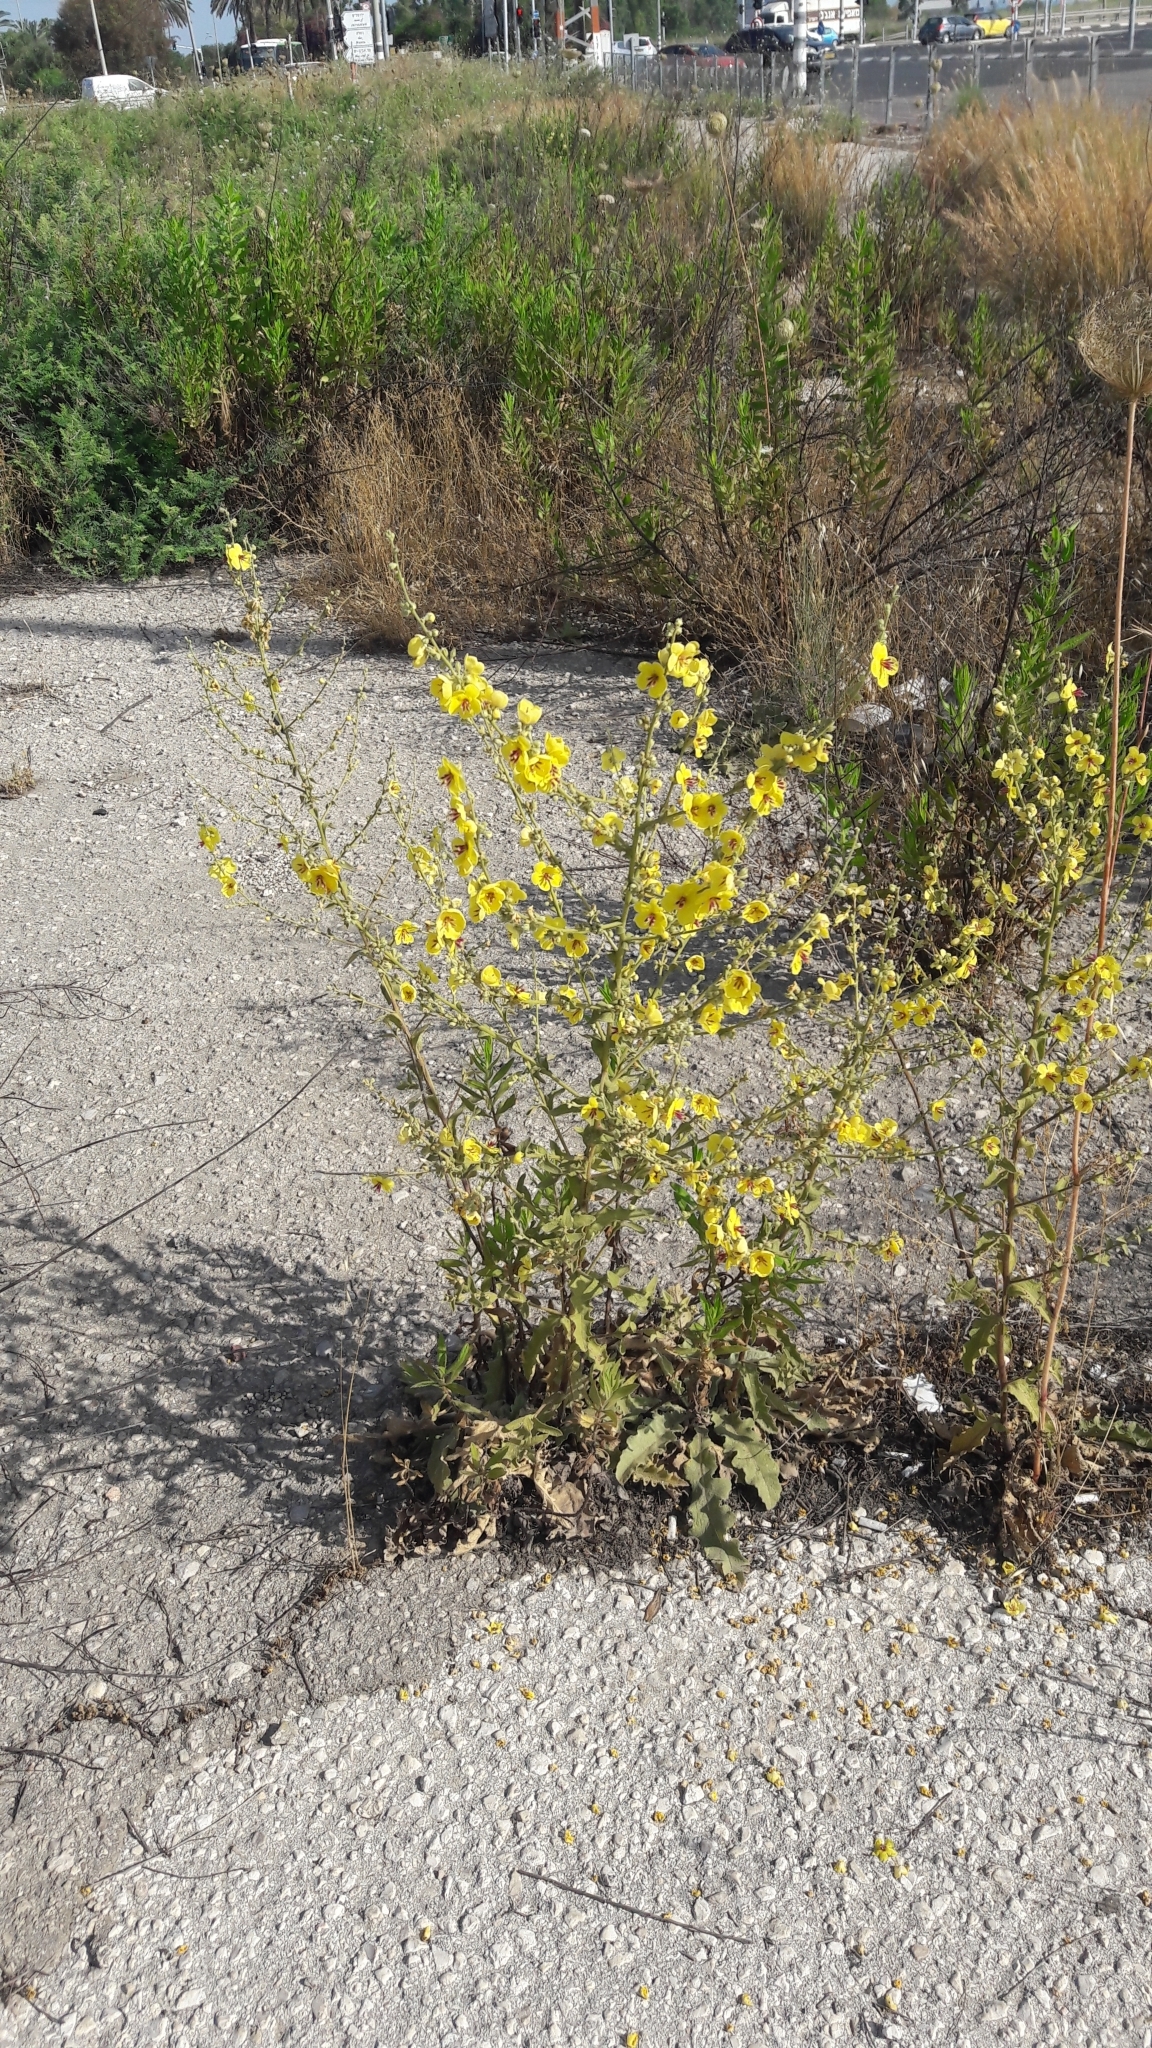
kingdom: Plantae
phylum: Tracheophyta
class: Magnoliopsida
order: Lamiales
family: Scrophulariaceae
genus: Verbascum
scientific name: Verbascum sinuatum
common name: Wavyleaf mullein
